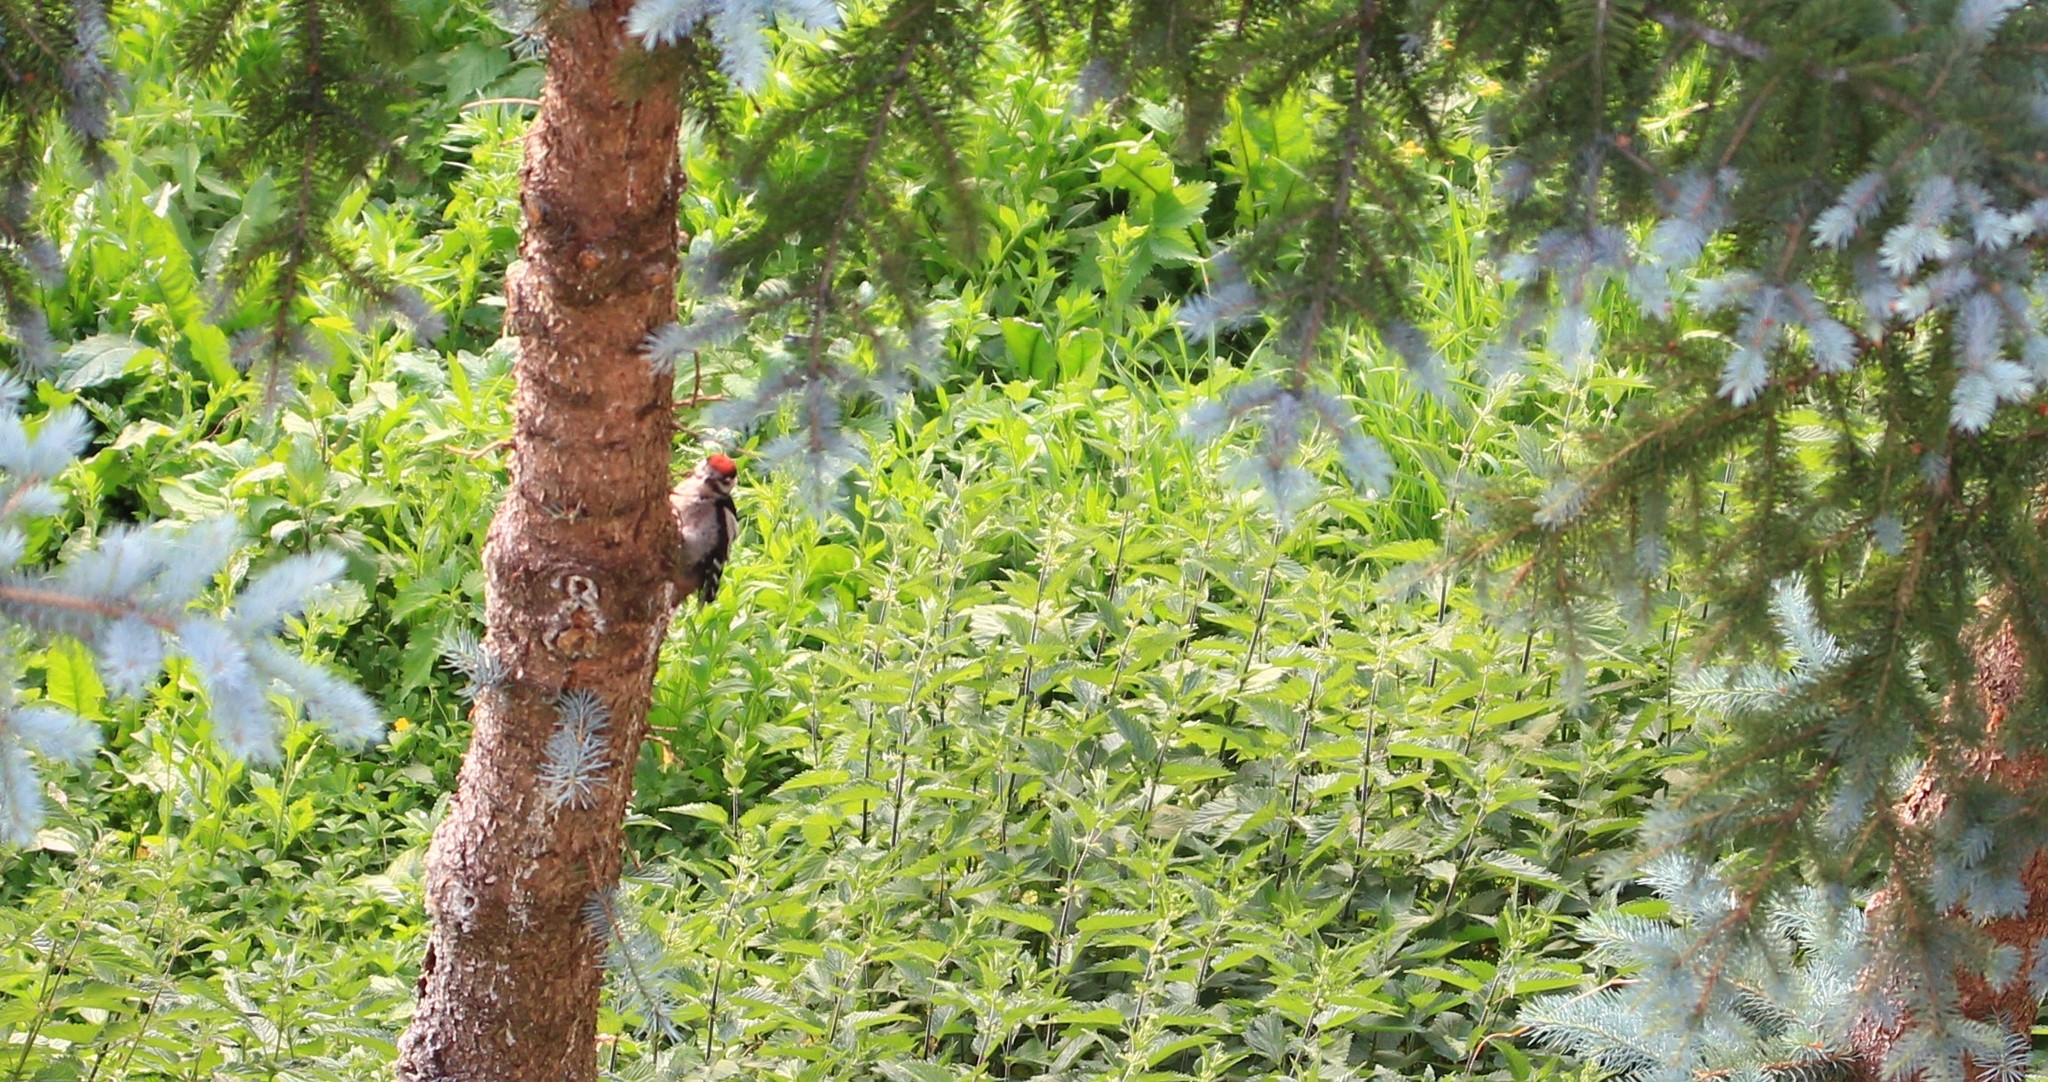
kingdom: Animalia
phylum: Chordata
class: Aves
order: Piciformes
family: Picidae
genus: Dendrocopos
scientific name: Dendrocopos major
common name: Great spotted woodpecker
